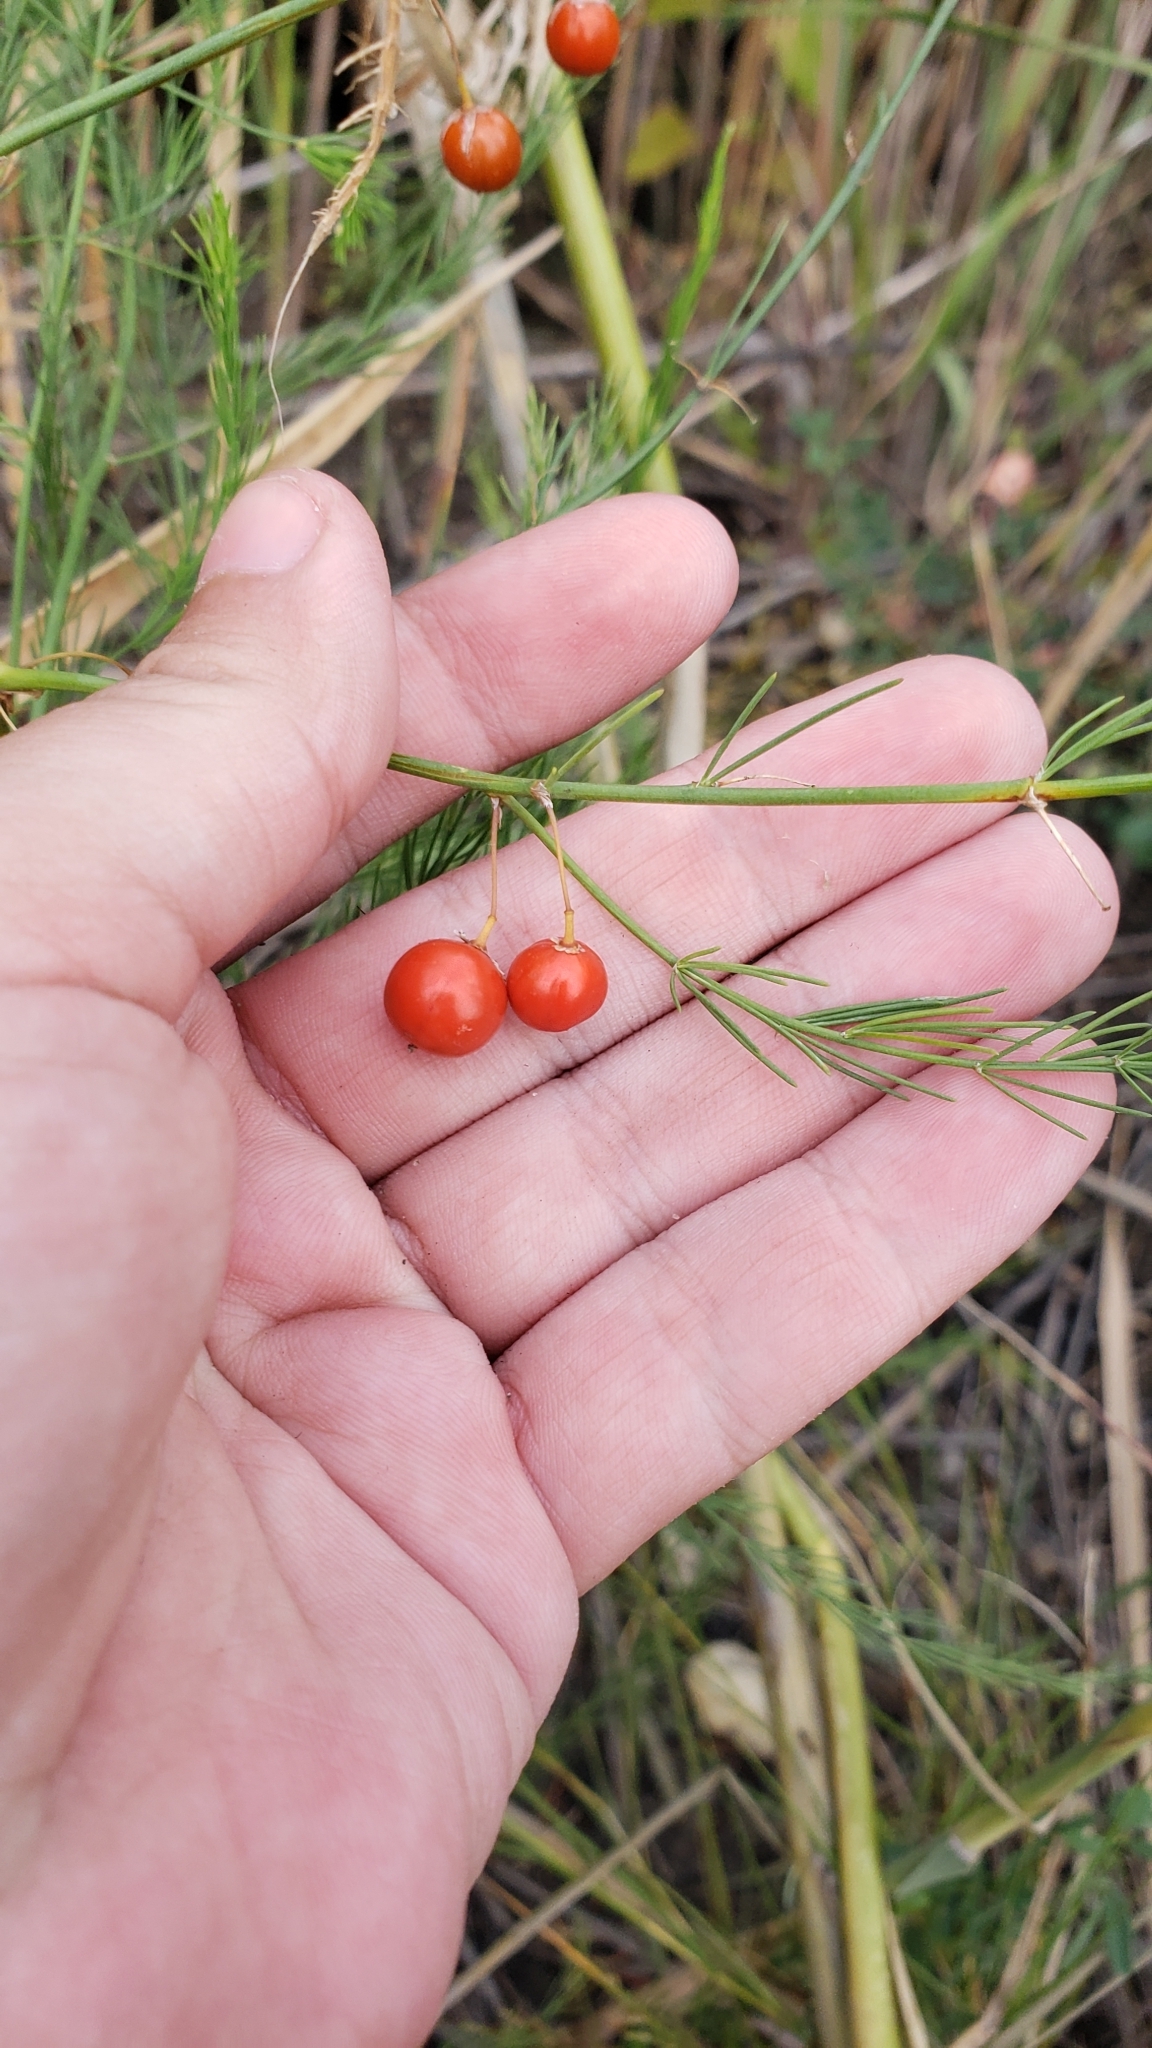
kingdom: Plantae
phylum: Tracheophyta
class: Liliopsida
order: Asparagales
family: Asparagaceae
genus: Asparagus
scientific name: Asparagus officinalis
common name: Garden asparagus
